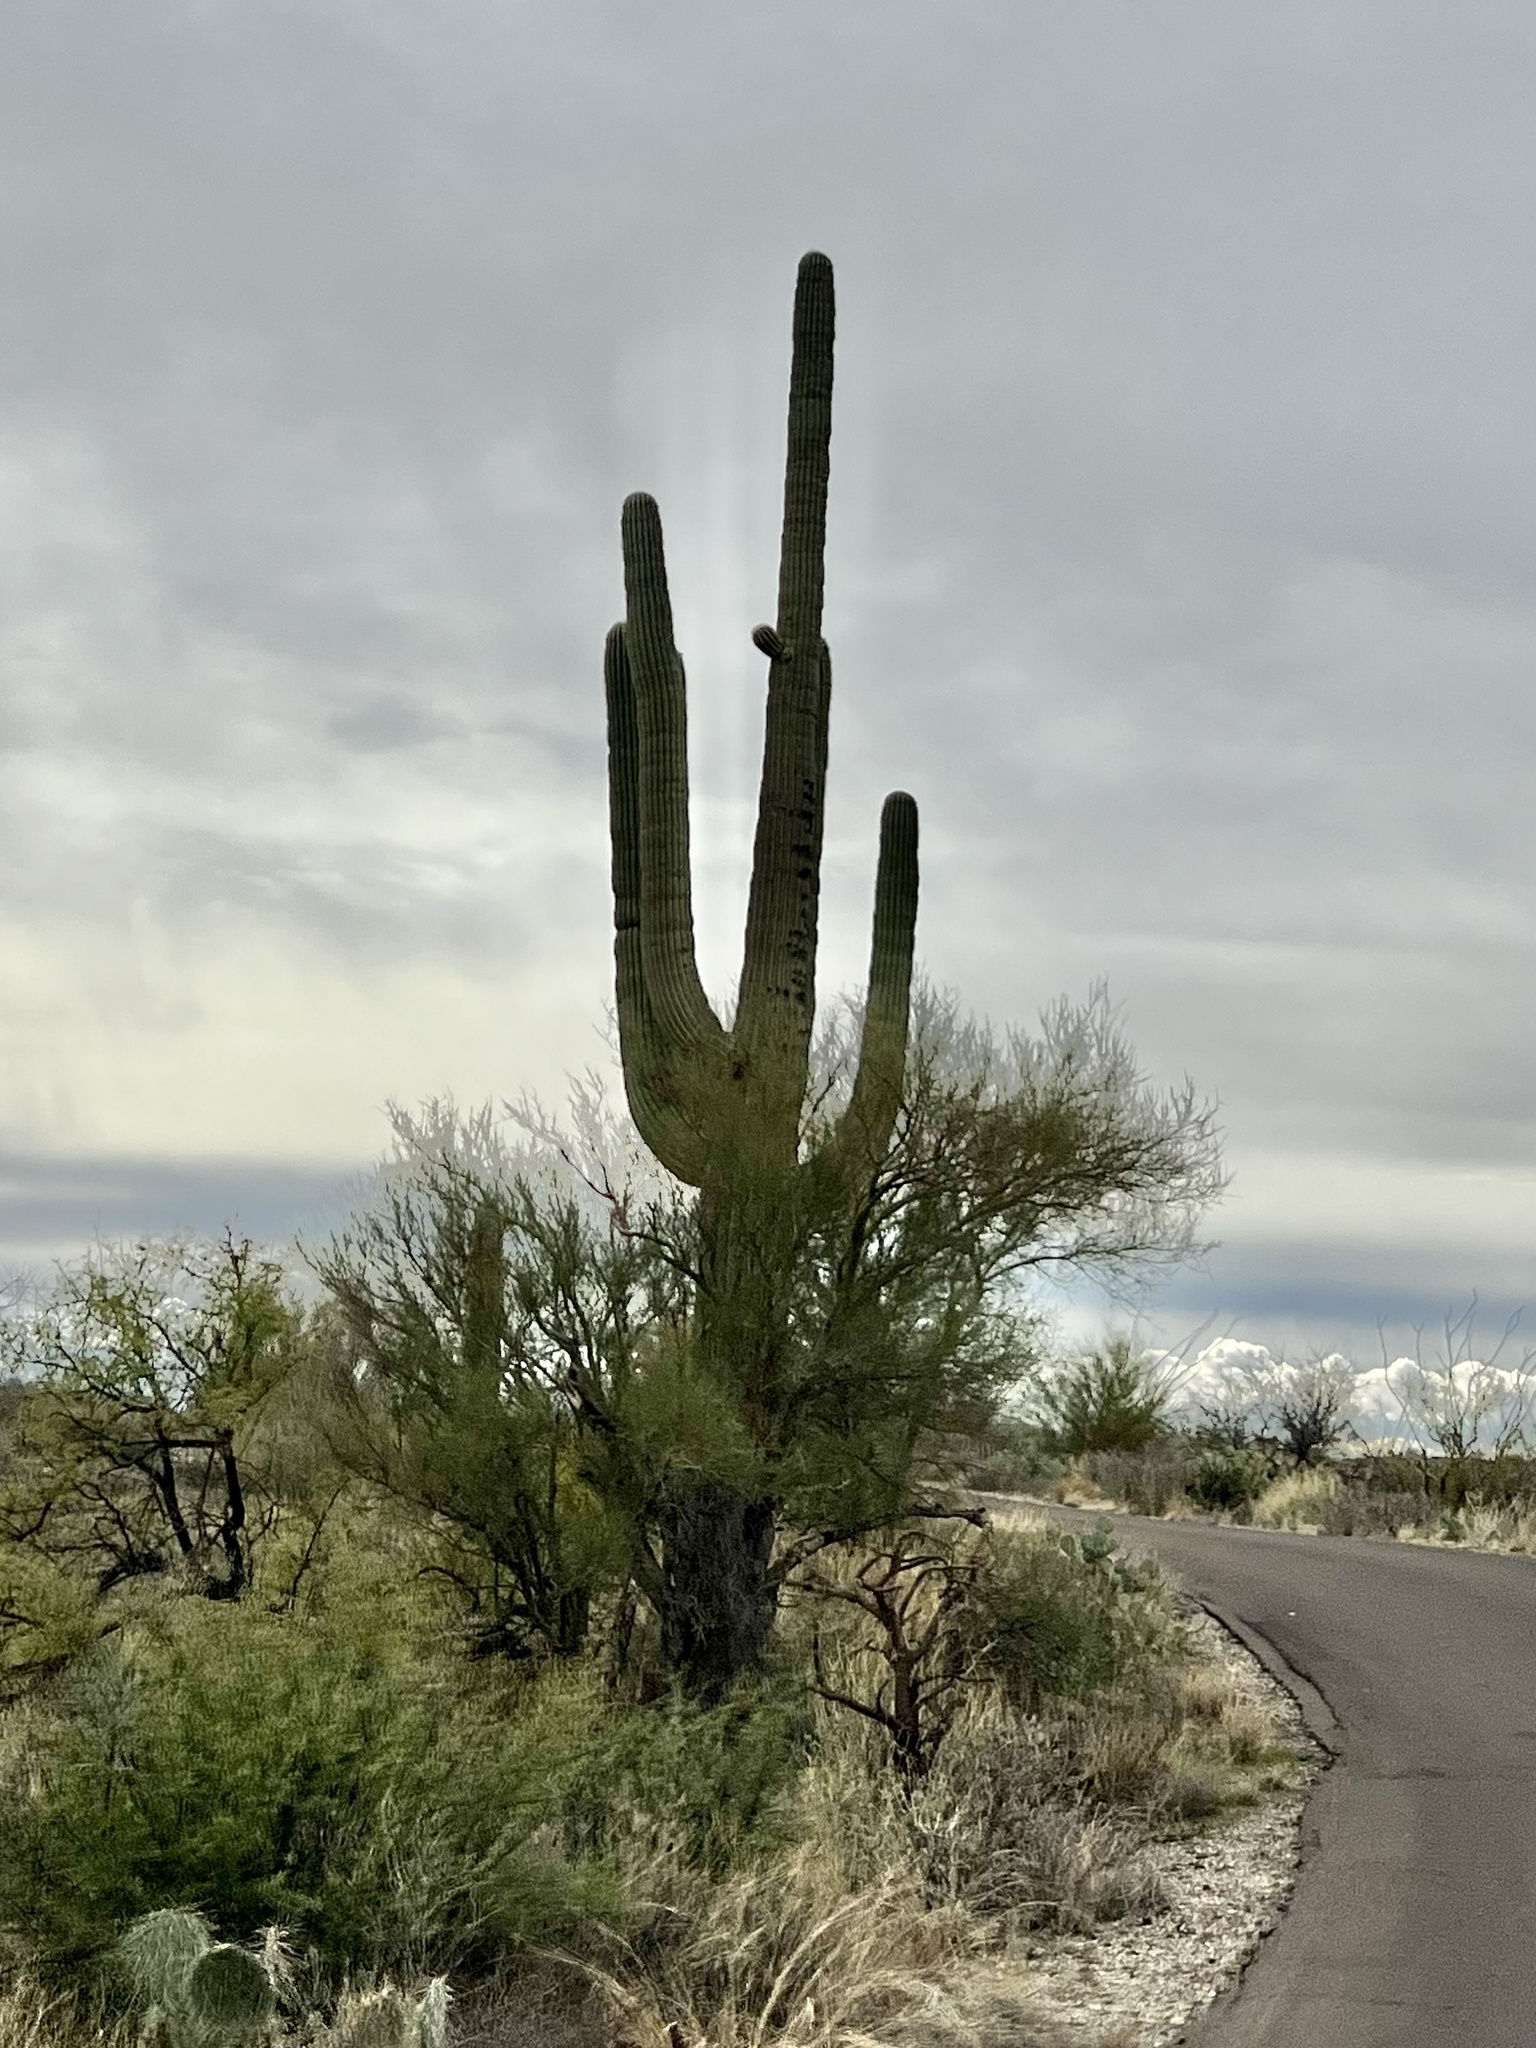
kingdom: Plantae
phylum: Tracheophyta
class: Magnoliopsida
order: Caryophyllales
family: Cactaceae
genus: Carnegiea
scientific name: Carnegiea gigantea
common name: Saguaro
